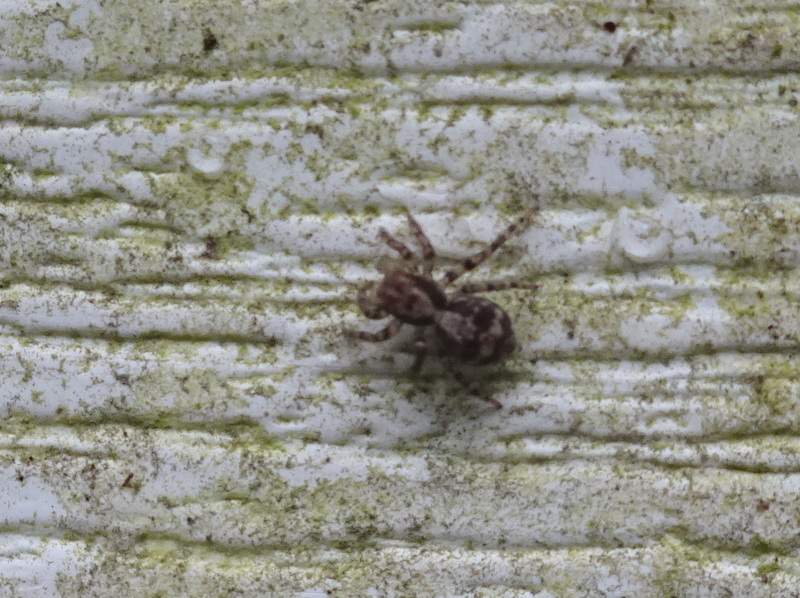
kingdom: Animalia
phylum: Arthropoda
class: Arachnida
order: Araneae
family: Salticidae
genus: Naphrys
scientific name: Naphrys pulex
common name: Flea jumping spider
